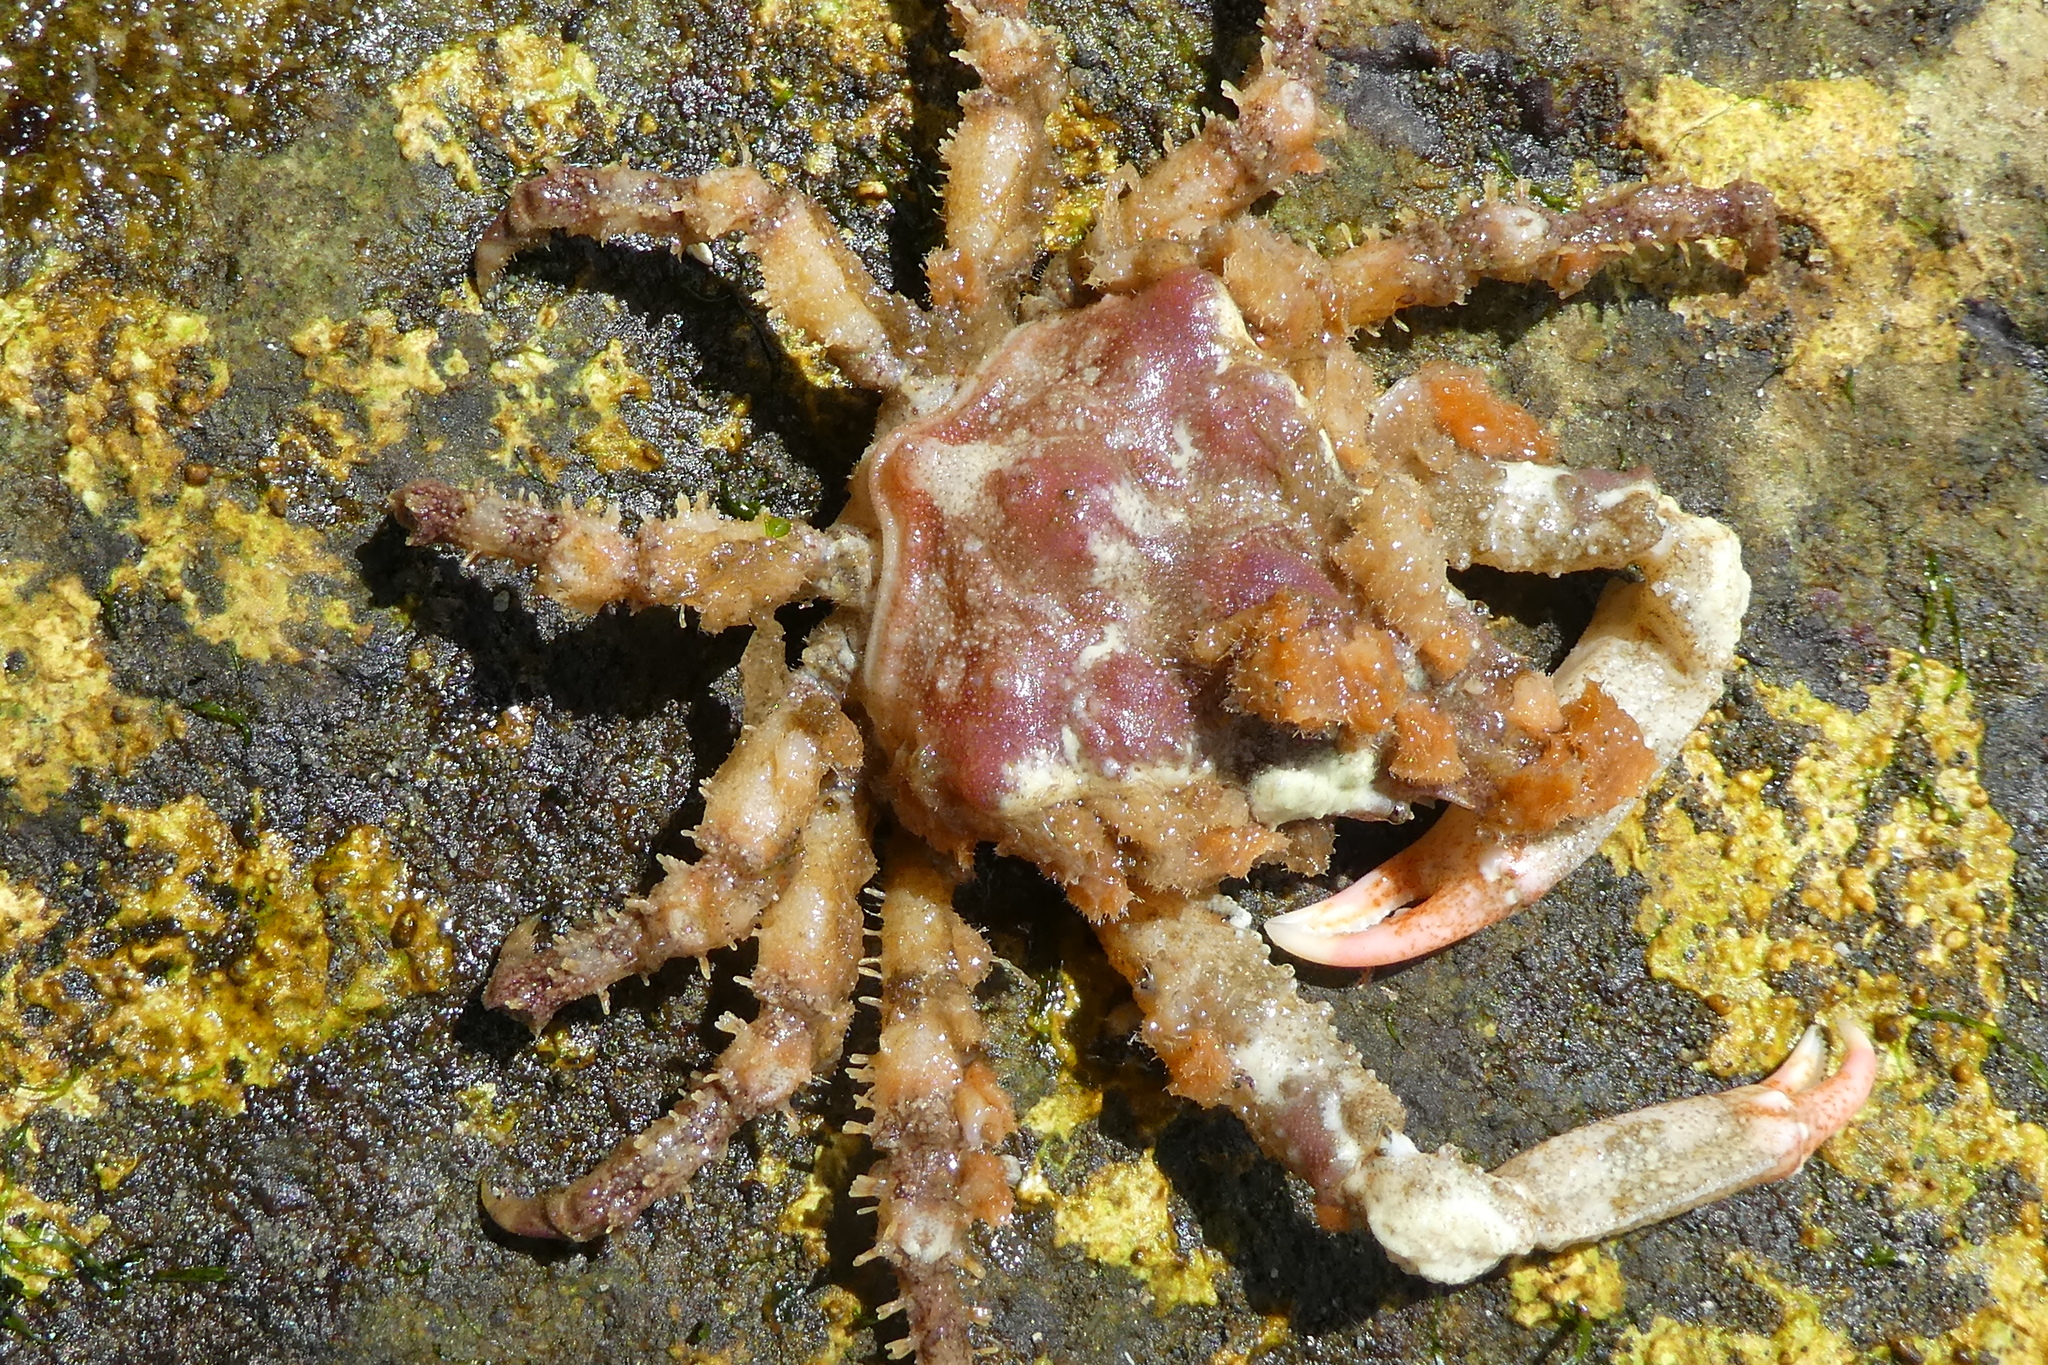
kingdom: Animalia
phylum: Arthropoda
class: Malacostraca
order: Decapoda
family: Epialtidae
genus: Scyra
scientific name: Scyra acutifrons
